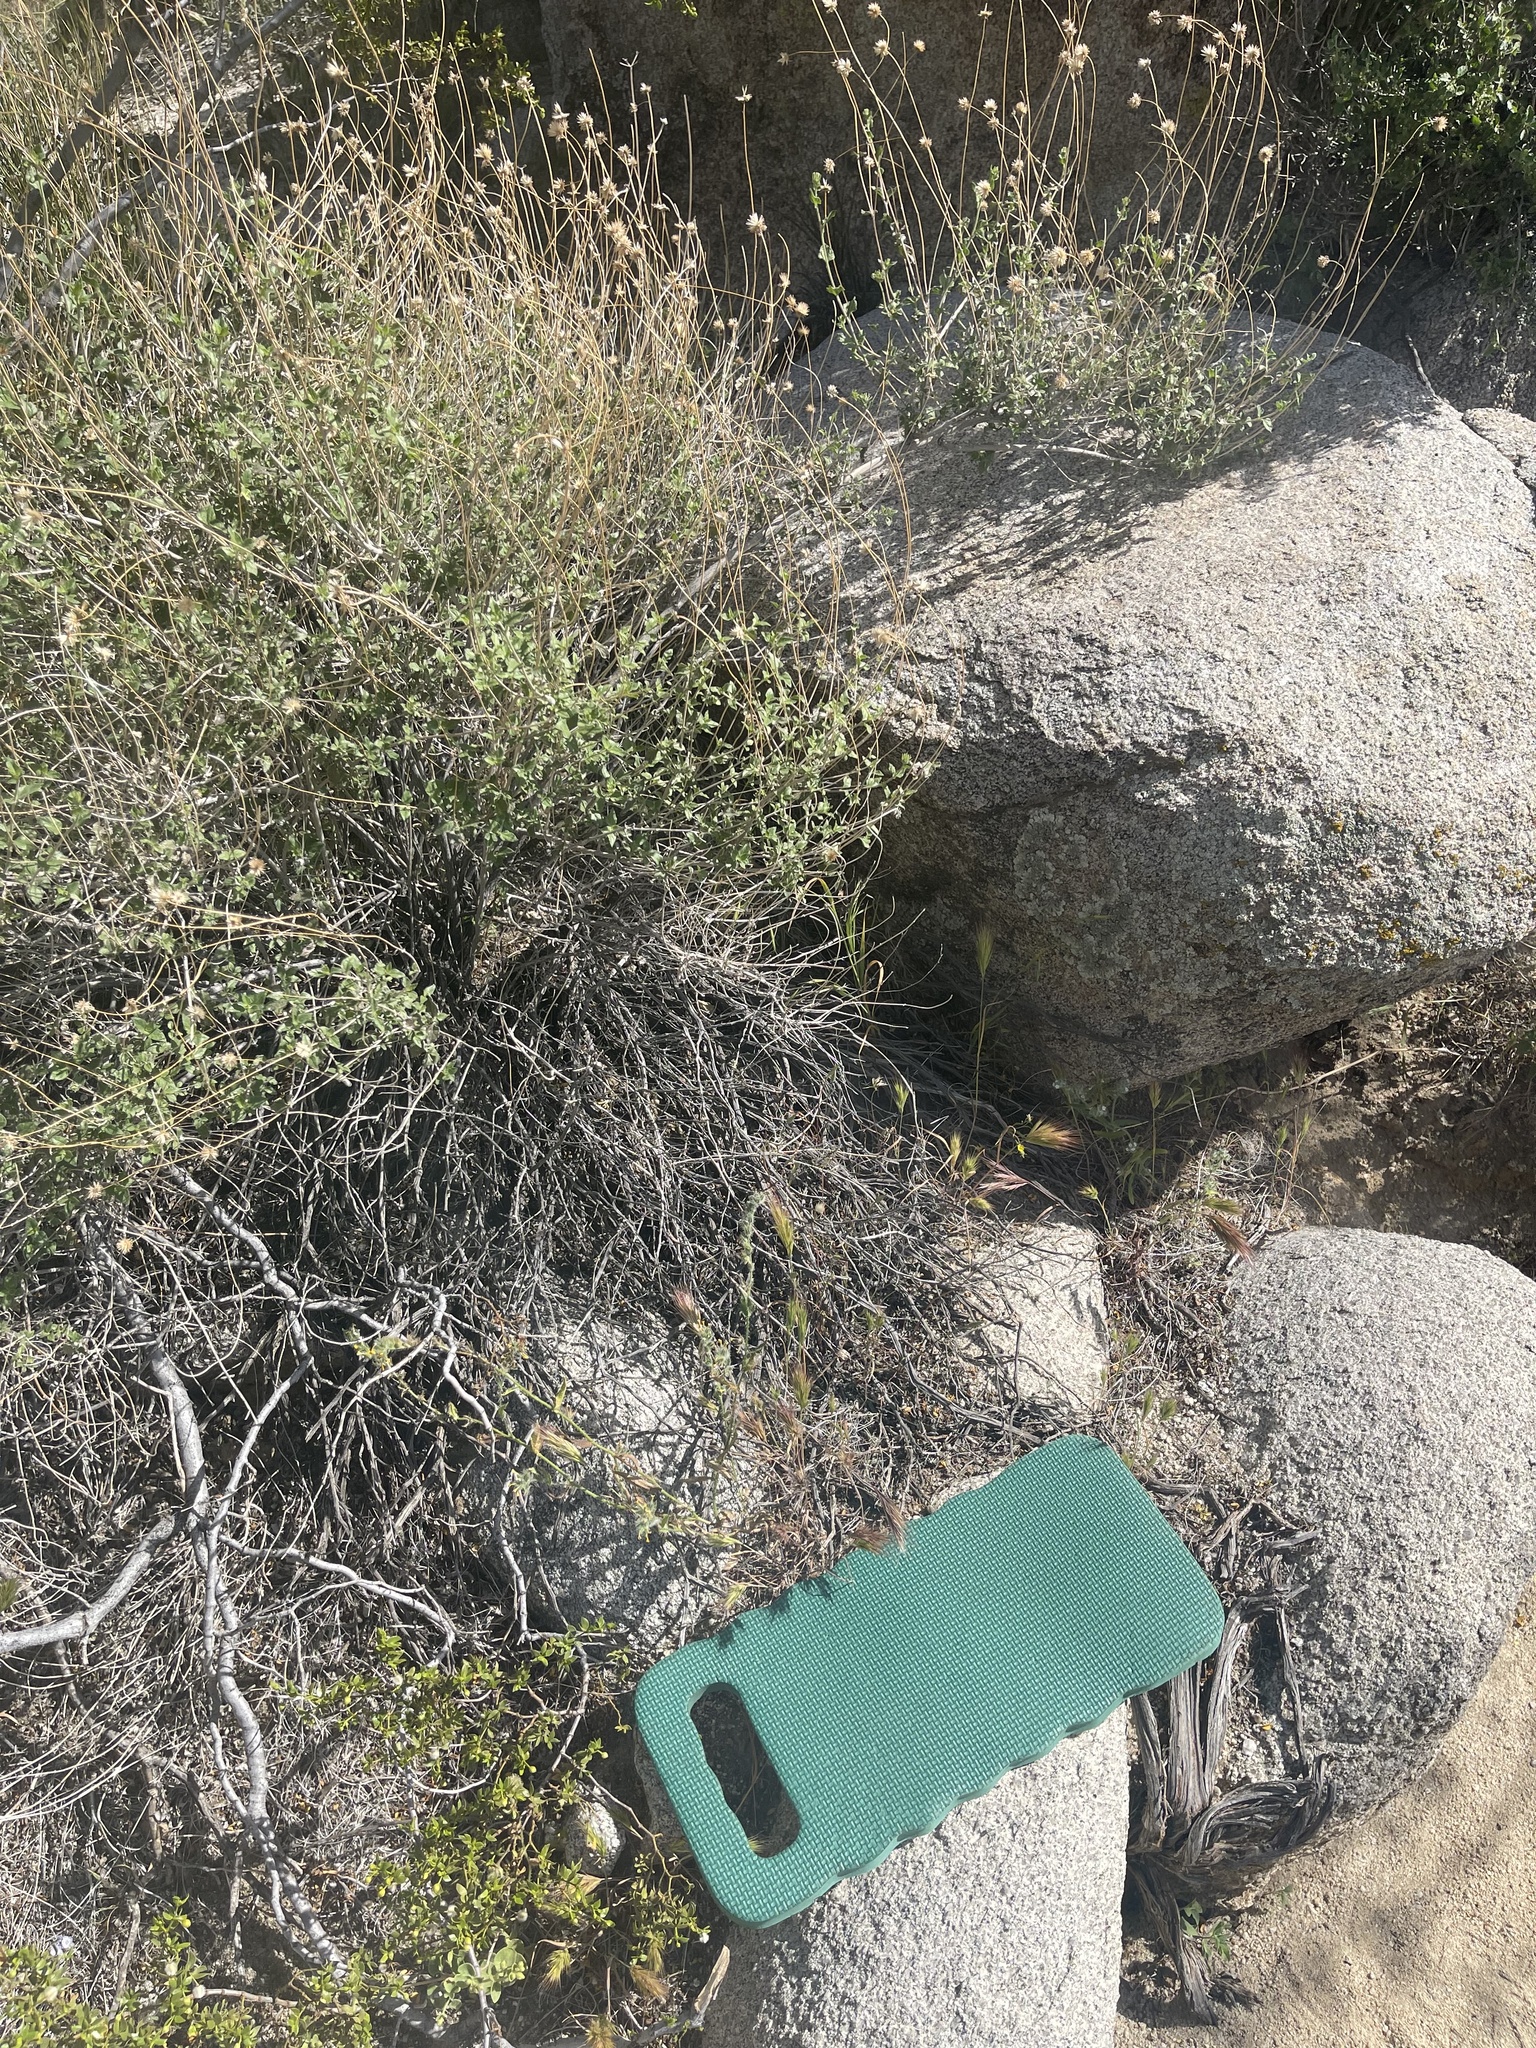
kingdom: Plantae
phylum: Tracheophyta
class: Magnoliopsida
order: Asterales
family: Asteraceae
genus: Microseris
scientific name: Microseris lindleyi
